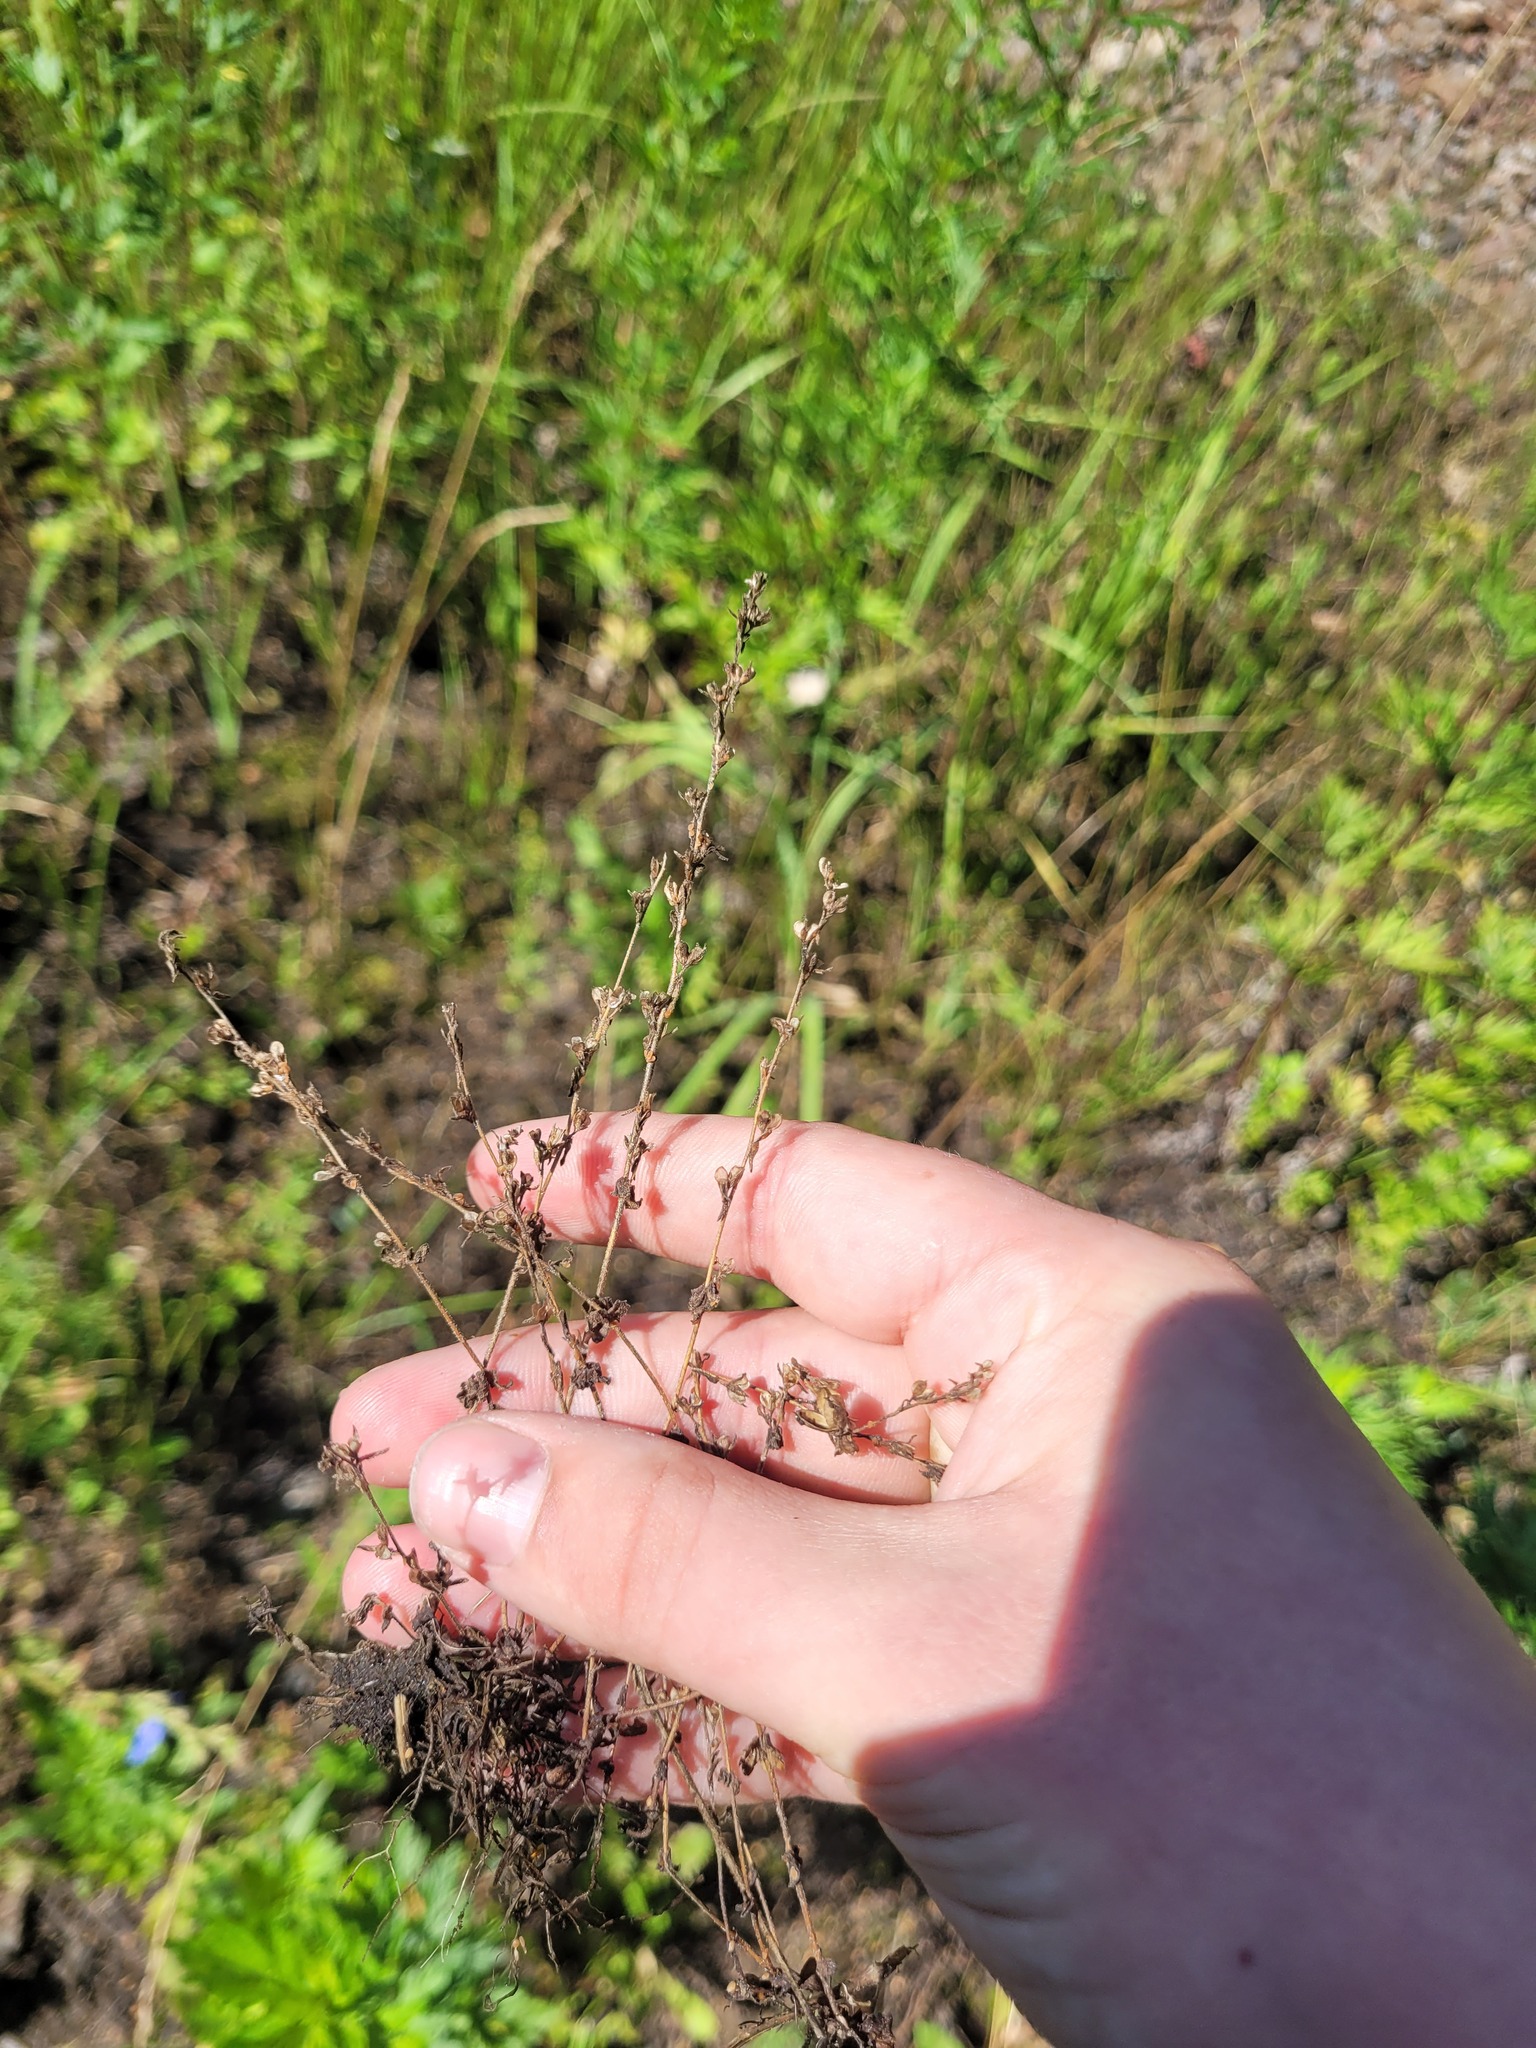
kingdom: Plantae
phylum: Tracheophyta
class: Magnoliopsida
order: Lamiales
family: Plantaginaceae
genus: Veronica
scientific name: Veronica arvensis
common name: Corn speedwell
